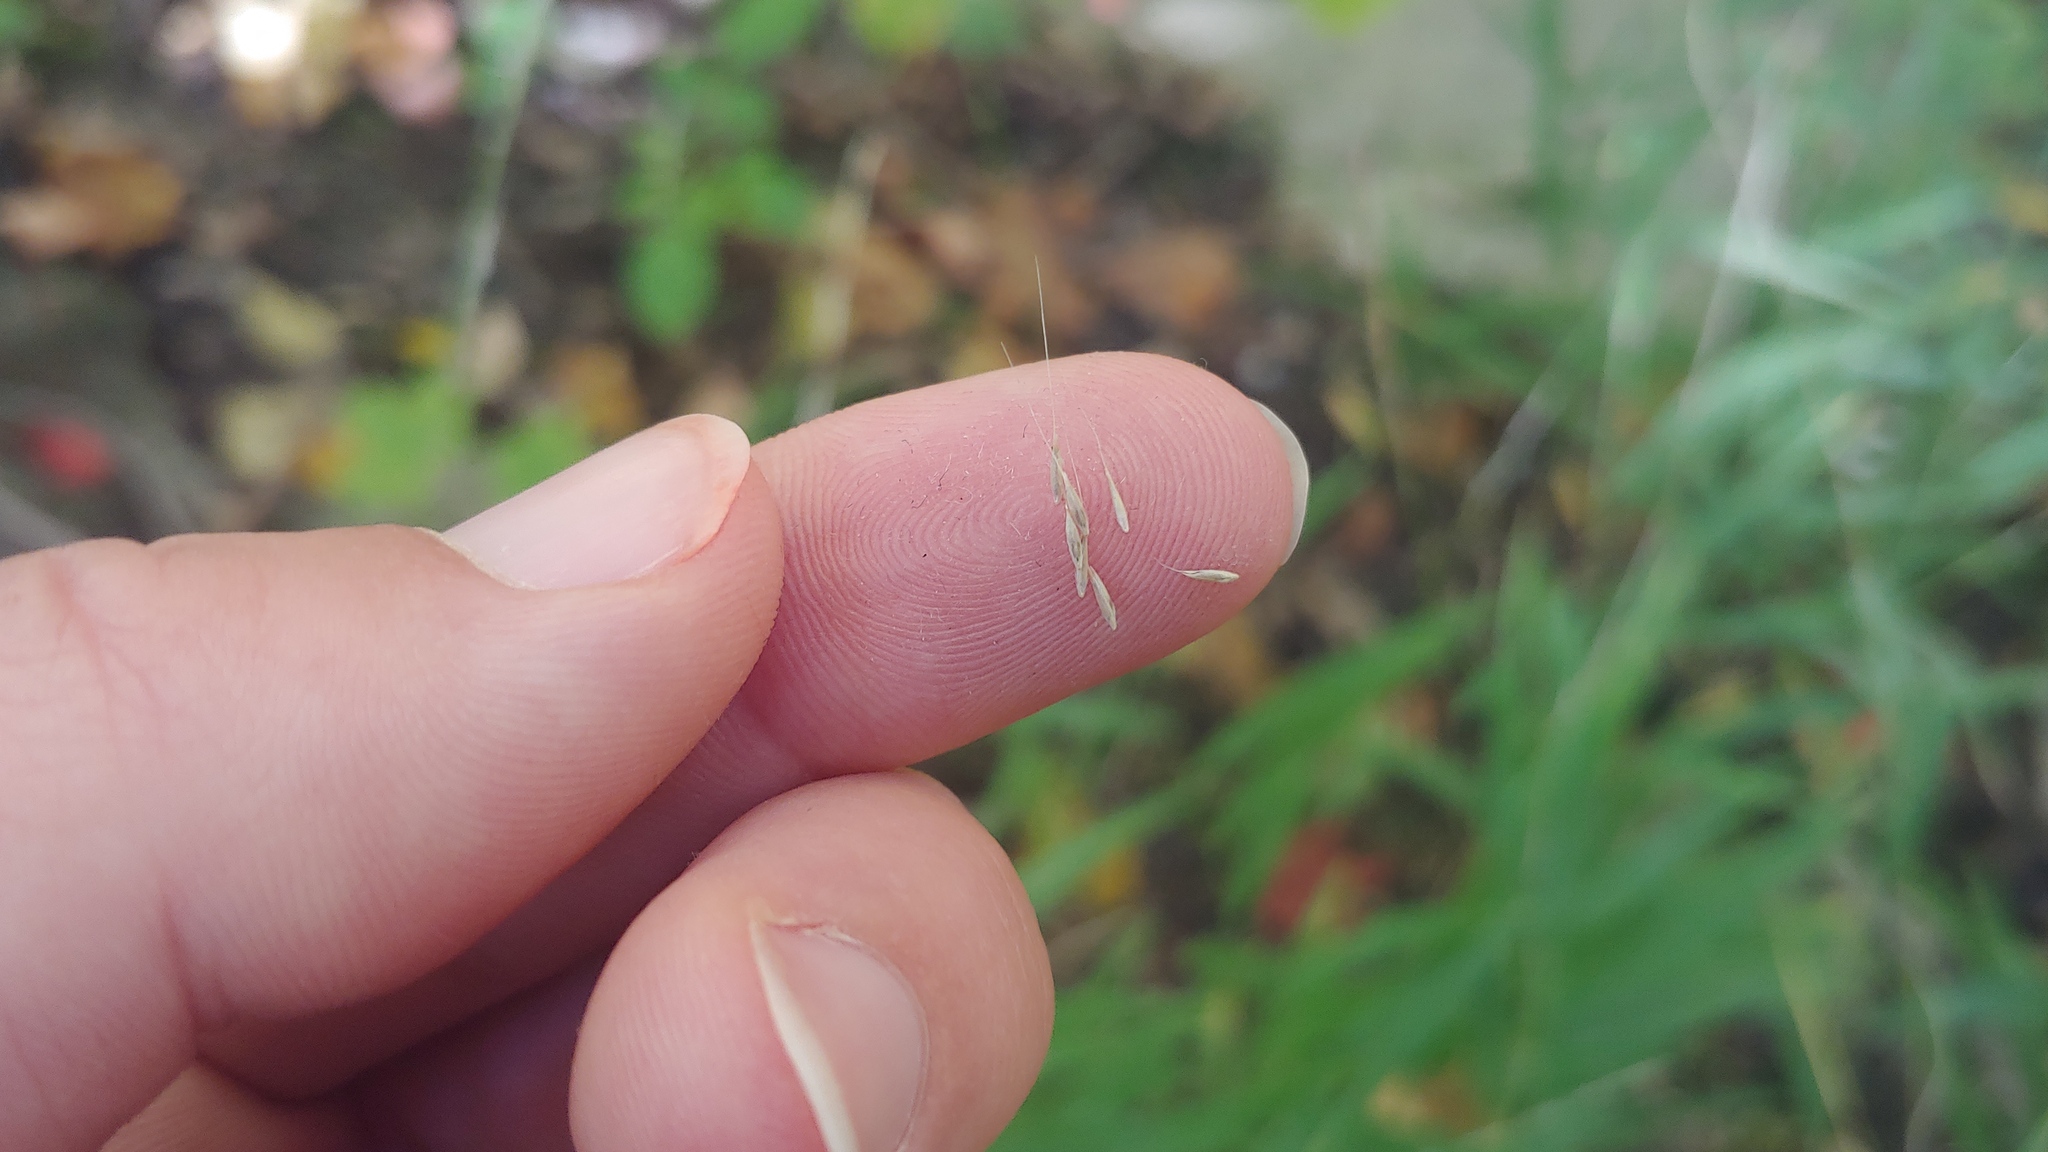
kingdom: Plantae
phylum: Tracheophyta
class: Liliopsida
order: Poales
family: Poaceae
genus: Muhlenbergia
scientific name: Muhlenbergia tenuiflora
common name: Slender muhly
